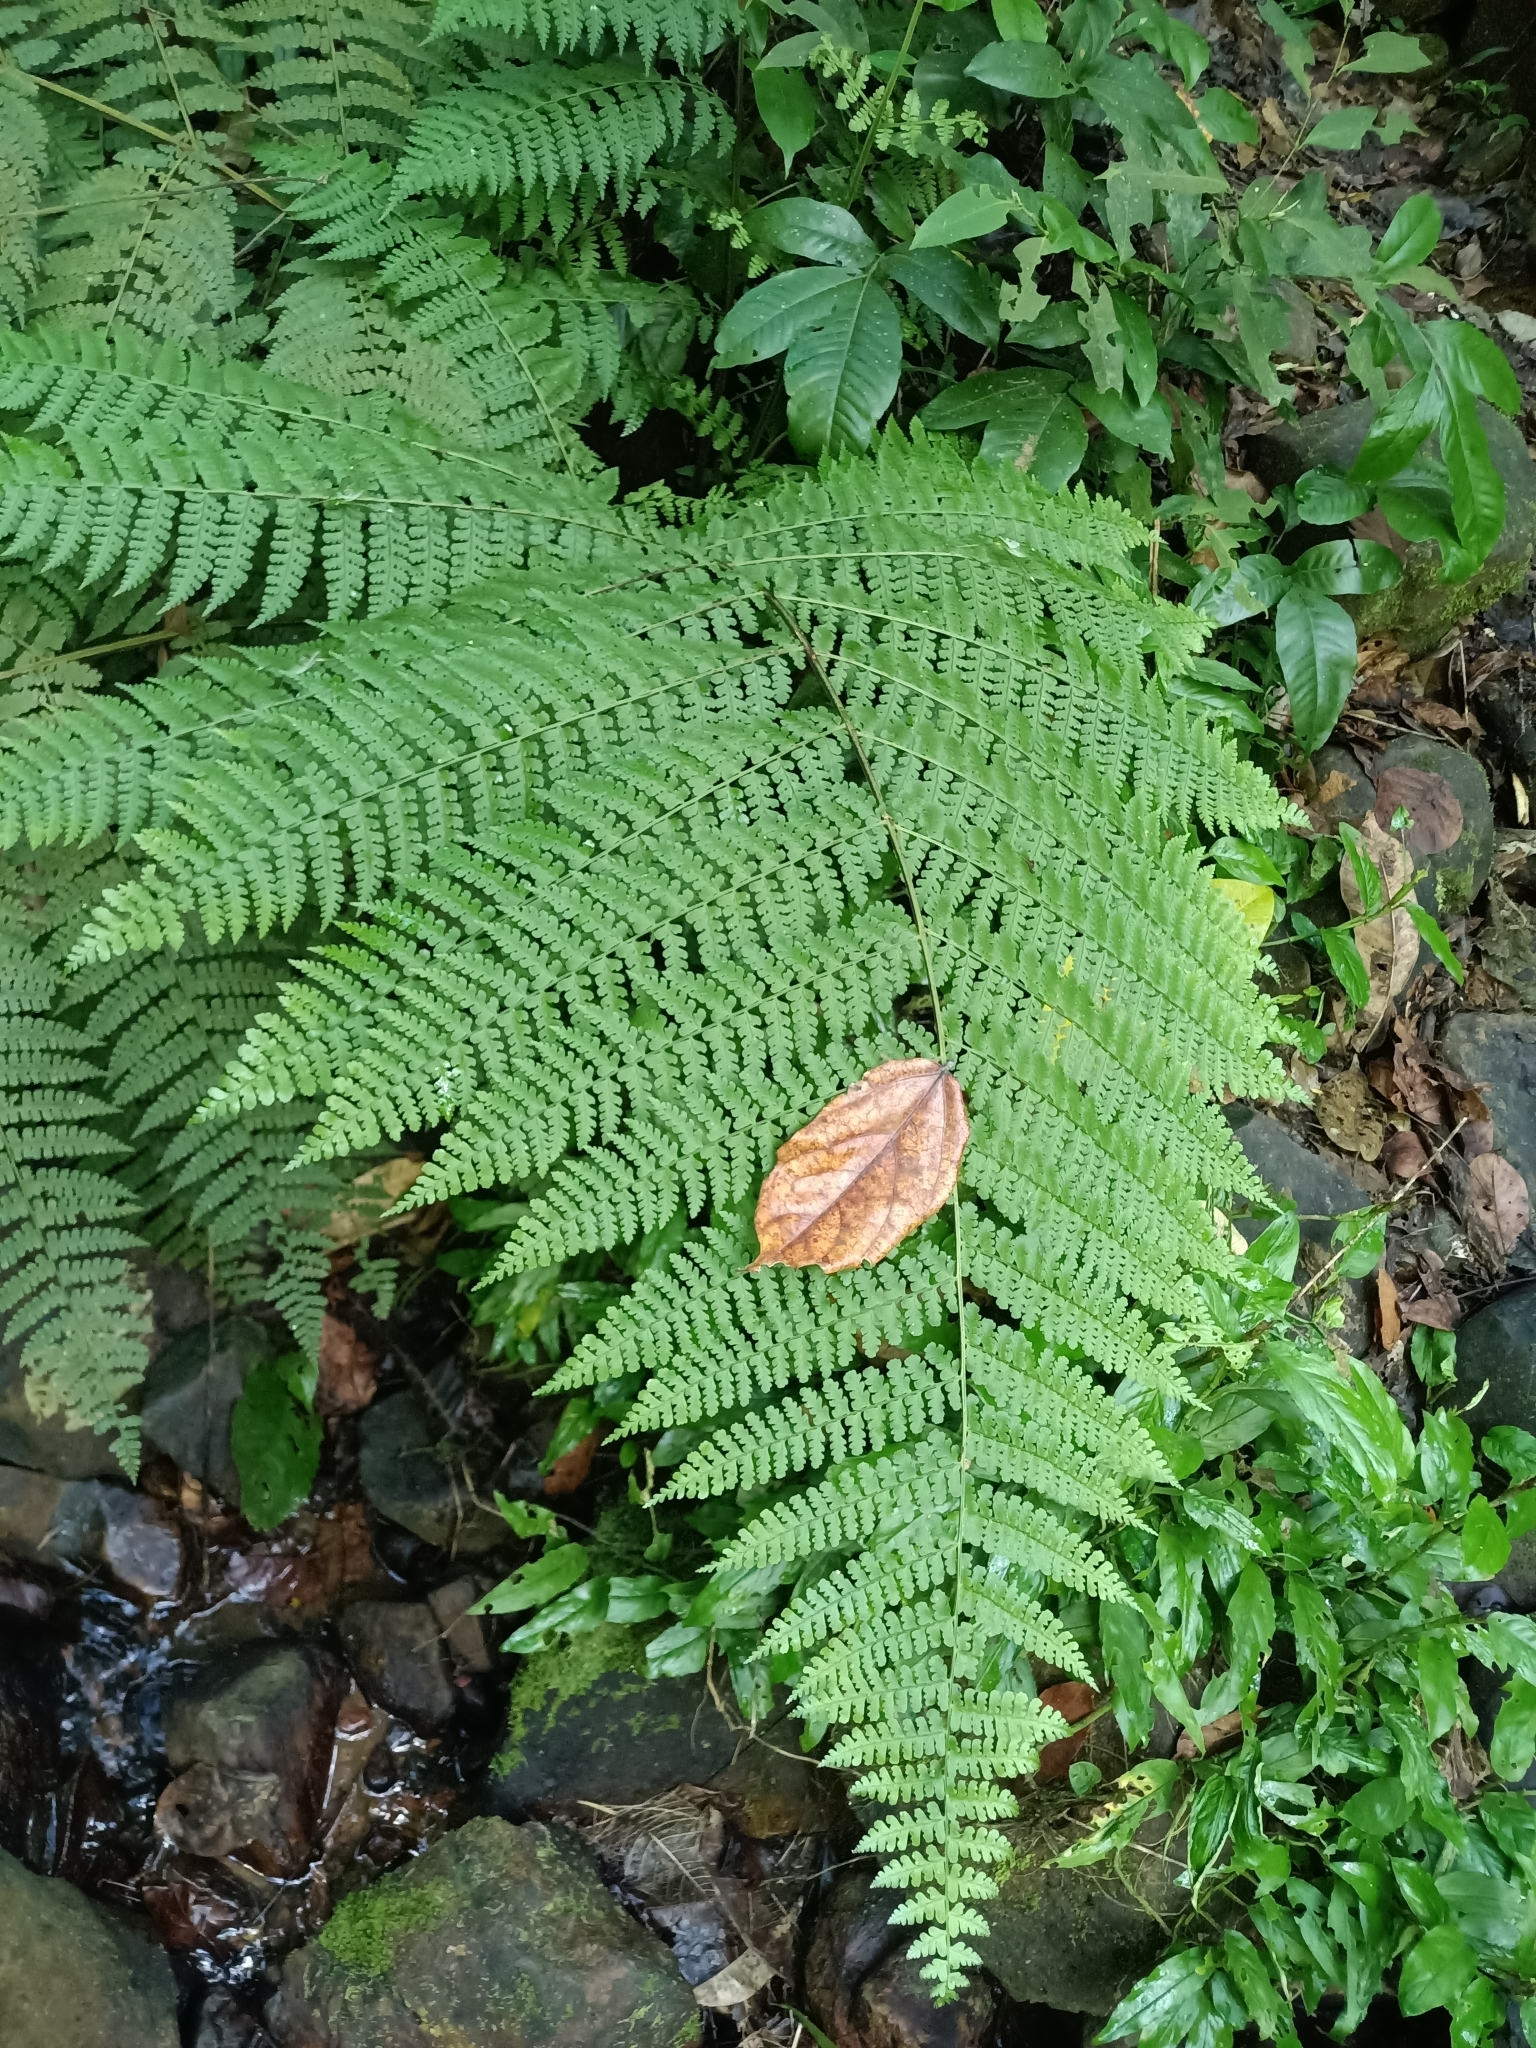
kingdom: Plantae
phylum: Tracheophyta
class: Polypodiopsida
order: Polypodiales
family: Dennstaedtiaceae
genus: Dennstaedtia
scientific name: Dennstaedtia obtusifolia
